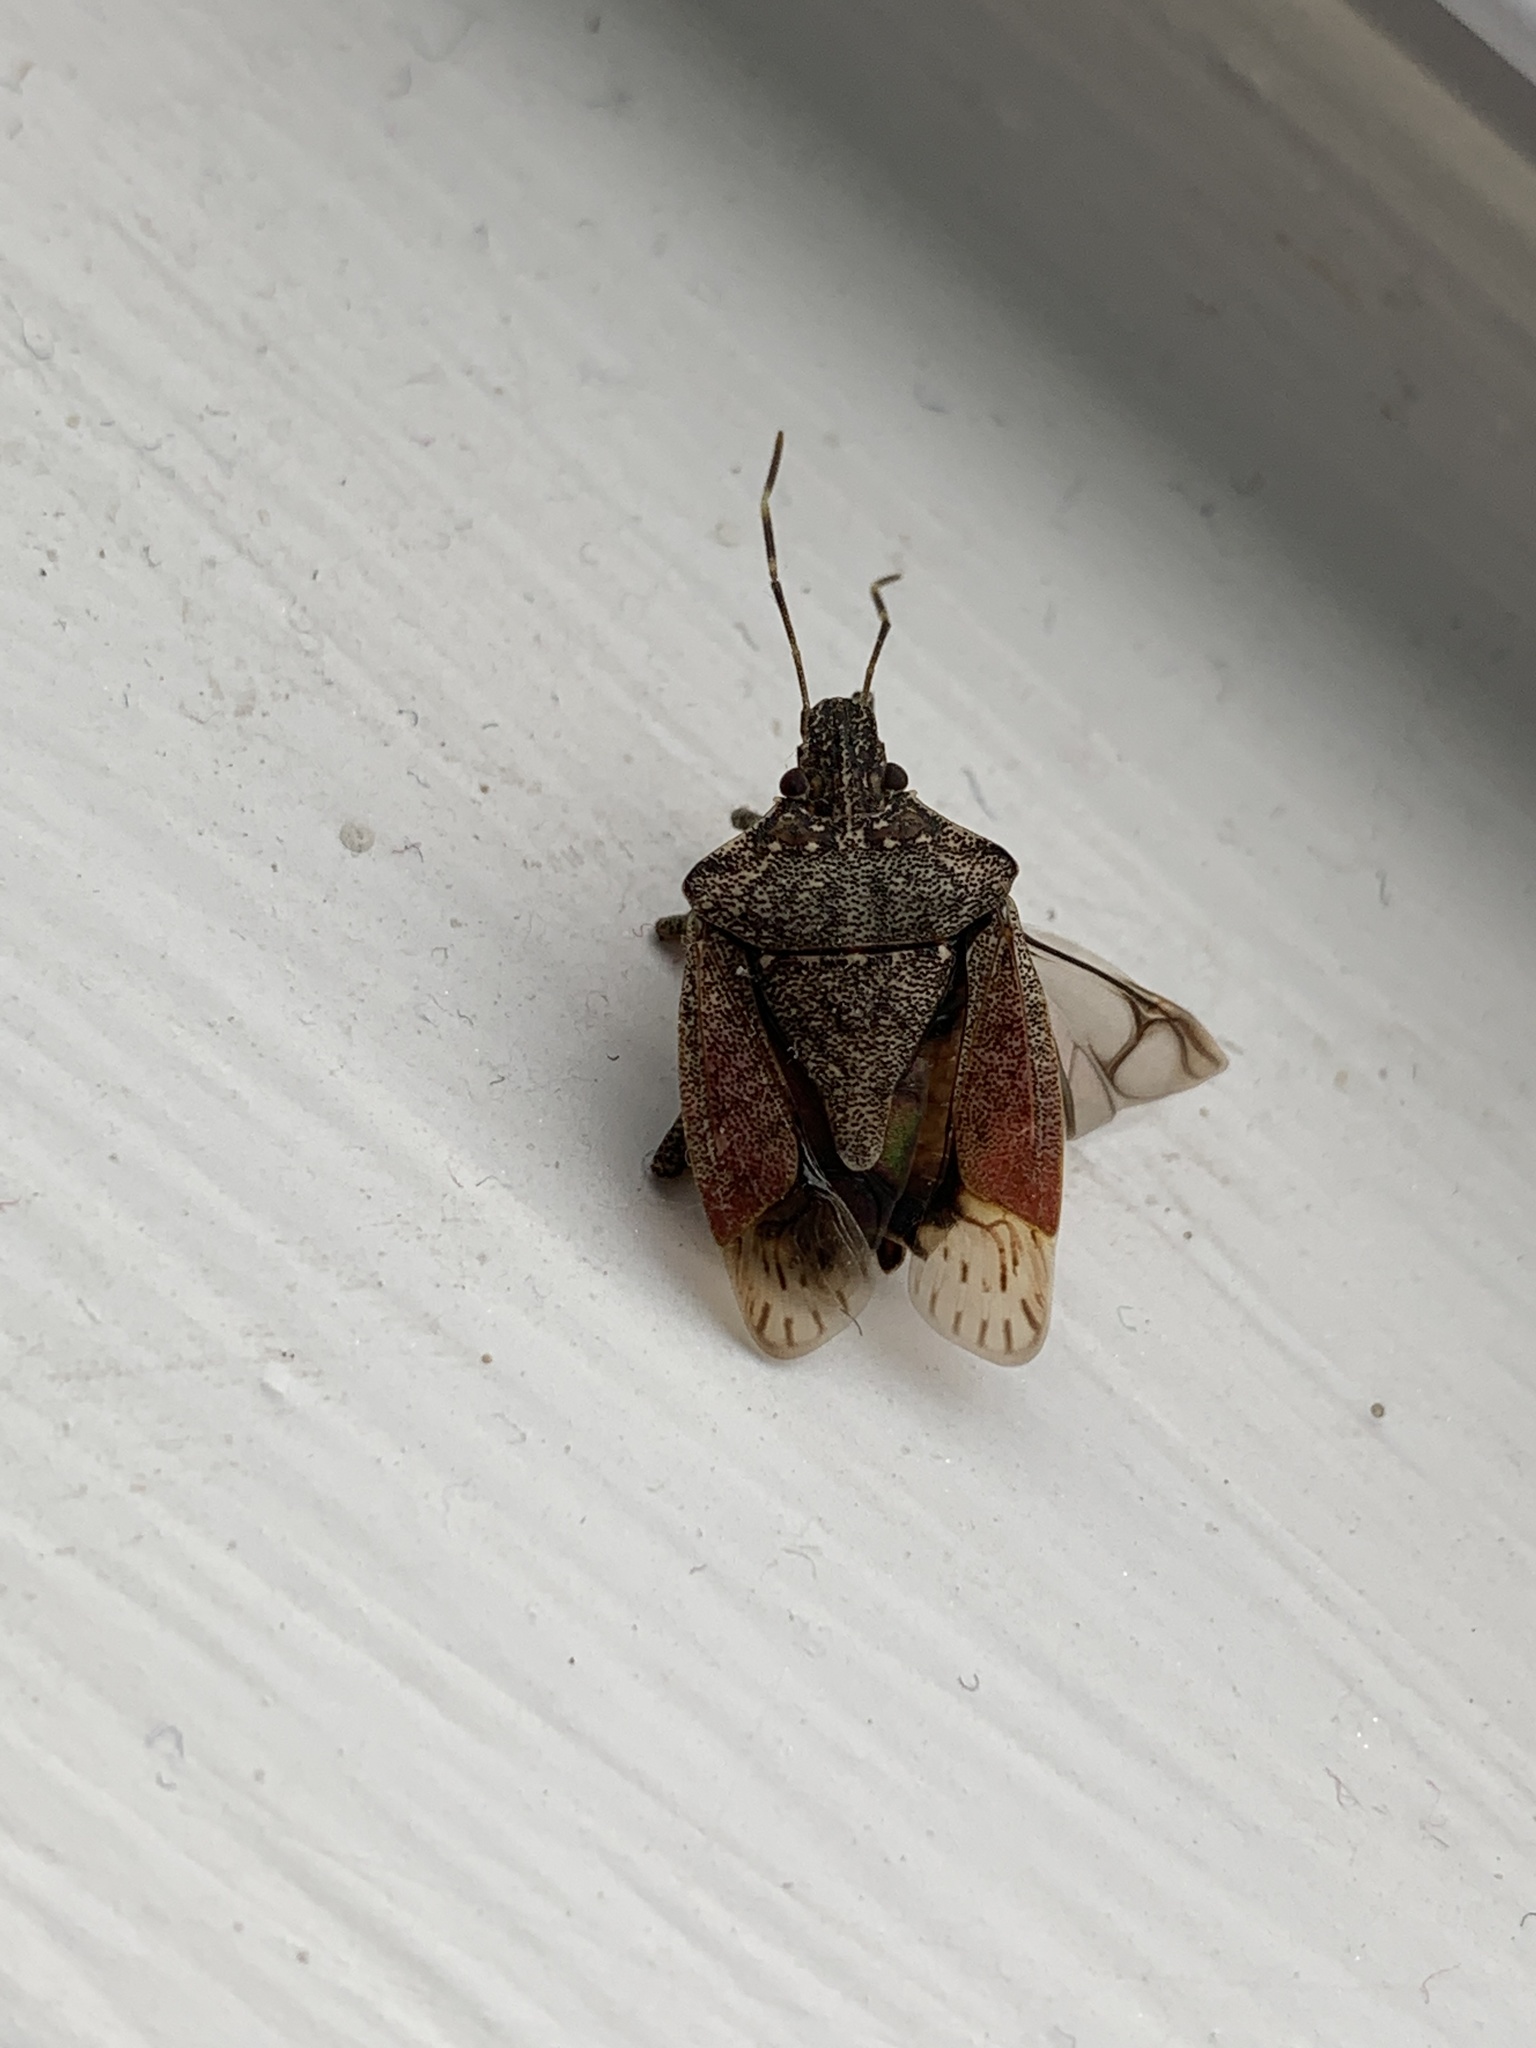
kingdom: Animalia
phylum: Arthropoda
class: Insecta
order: Hemiptera
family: Pentatomidae
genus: Halyomorpha
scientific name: Halyomorpha halys
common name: Brown marmorated stink bug
